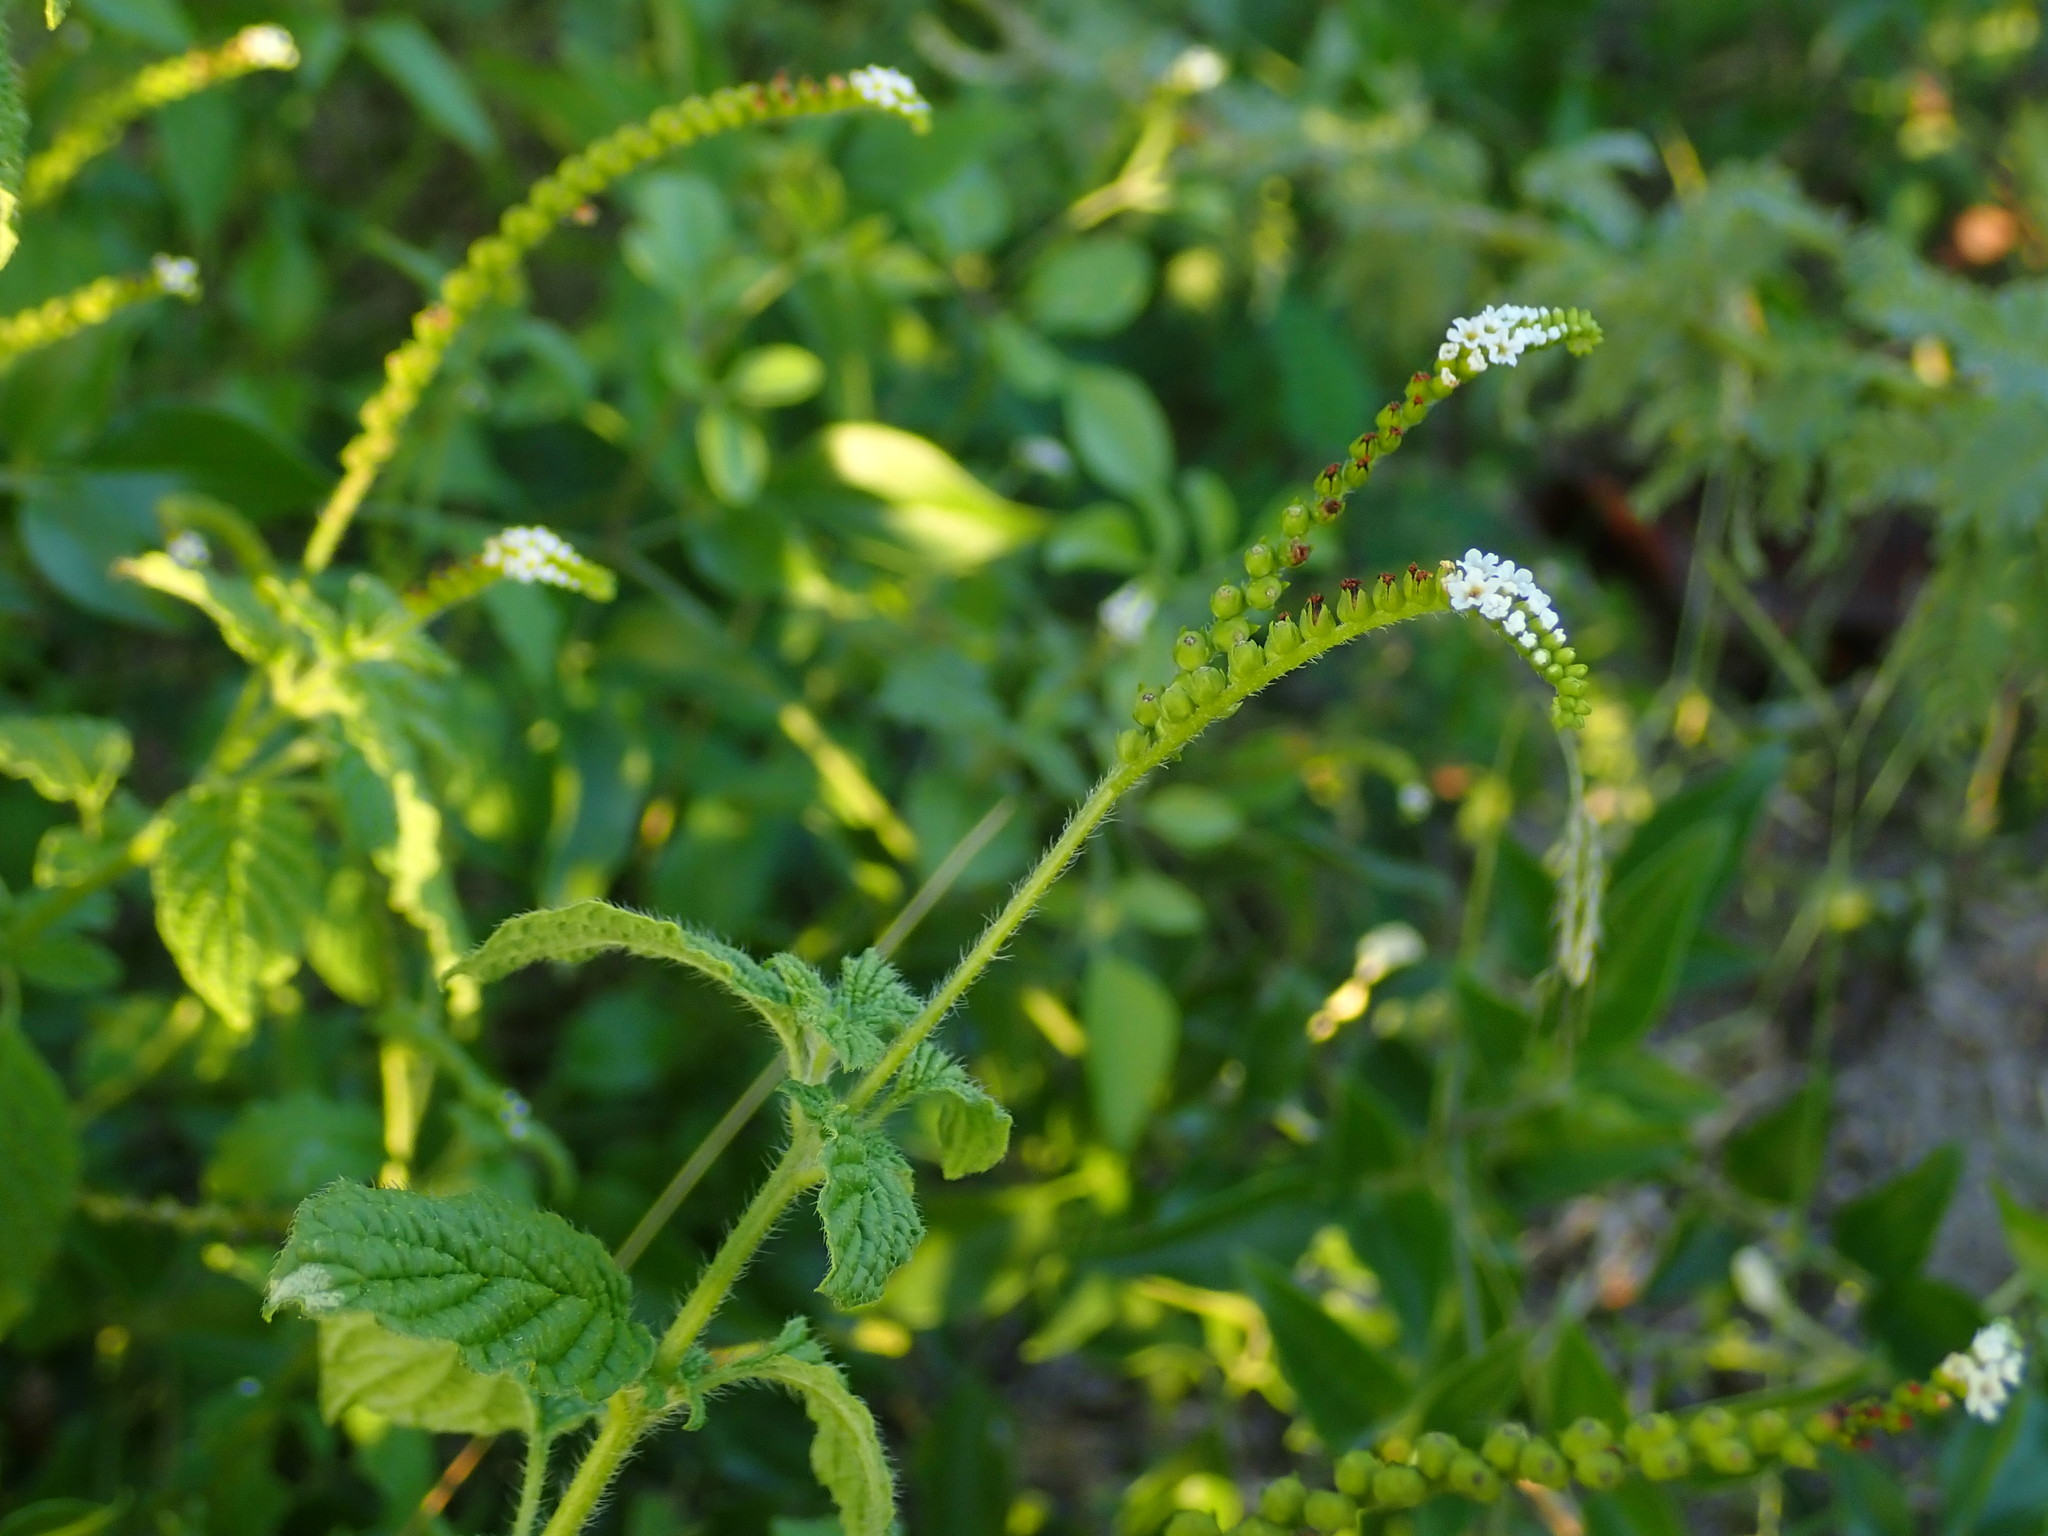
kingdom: Plantae
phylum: Tracheophyta
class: Magnoliopsida
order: Boraginales
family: Heliotropiaceae
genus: Heliotropium
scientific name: Heliotropium angiospermum
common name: Eye bright
